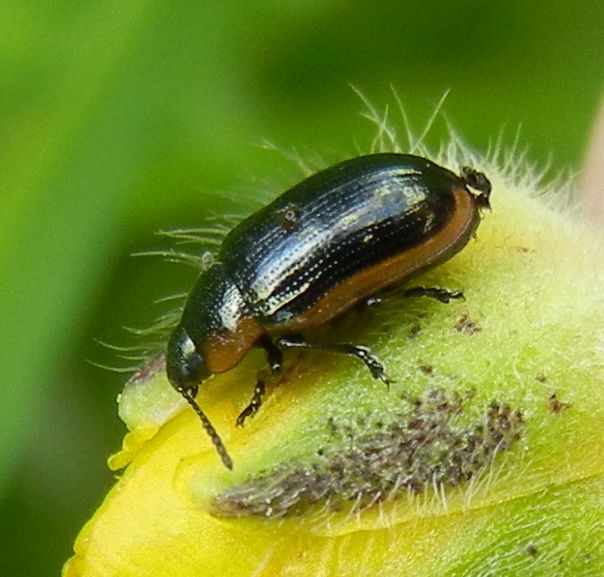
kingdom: Animalia
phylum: Arthropoda
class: Insecta
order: Coleoptera
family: Chrysomelidae
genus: Prasocuris
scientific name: Prasocuris marginella
